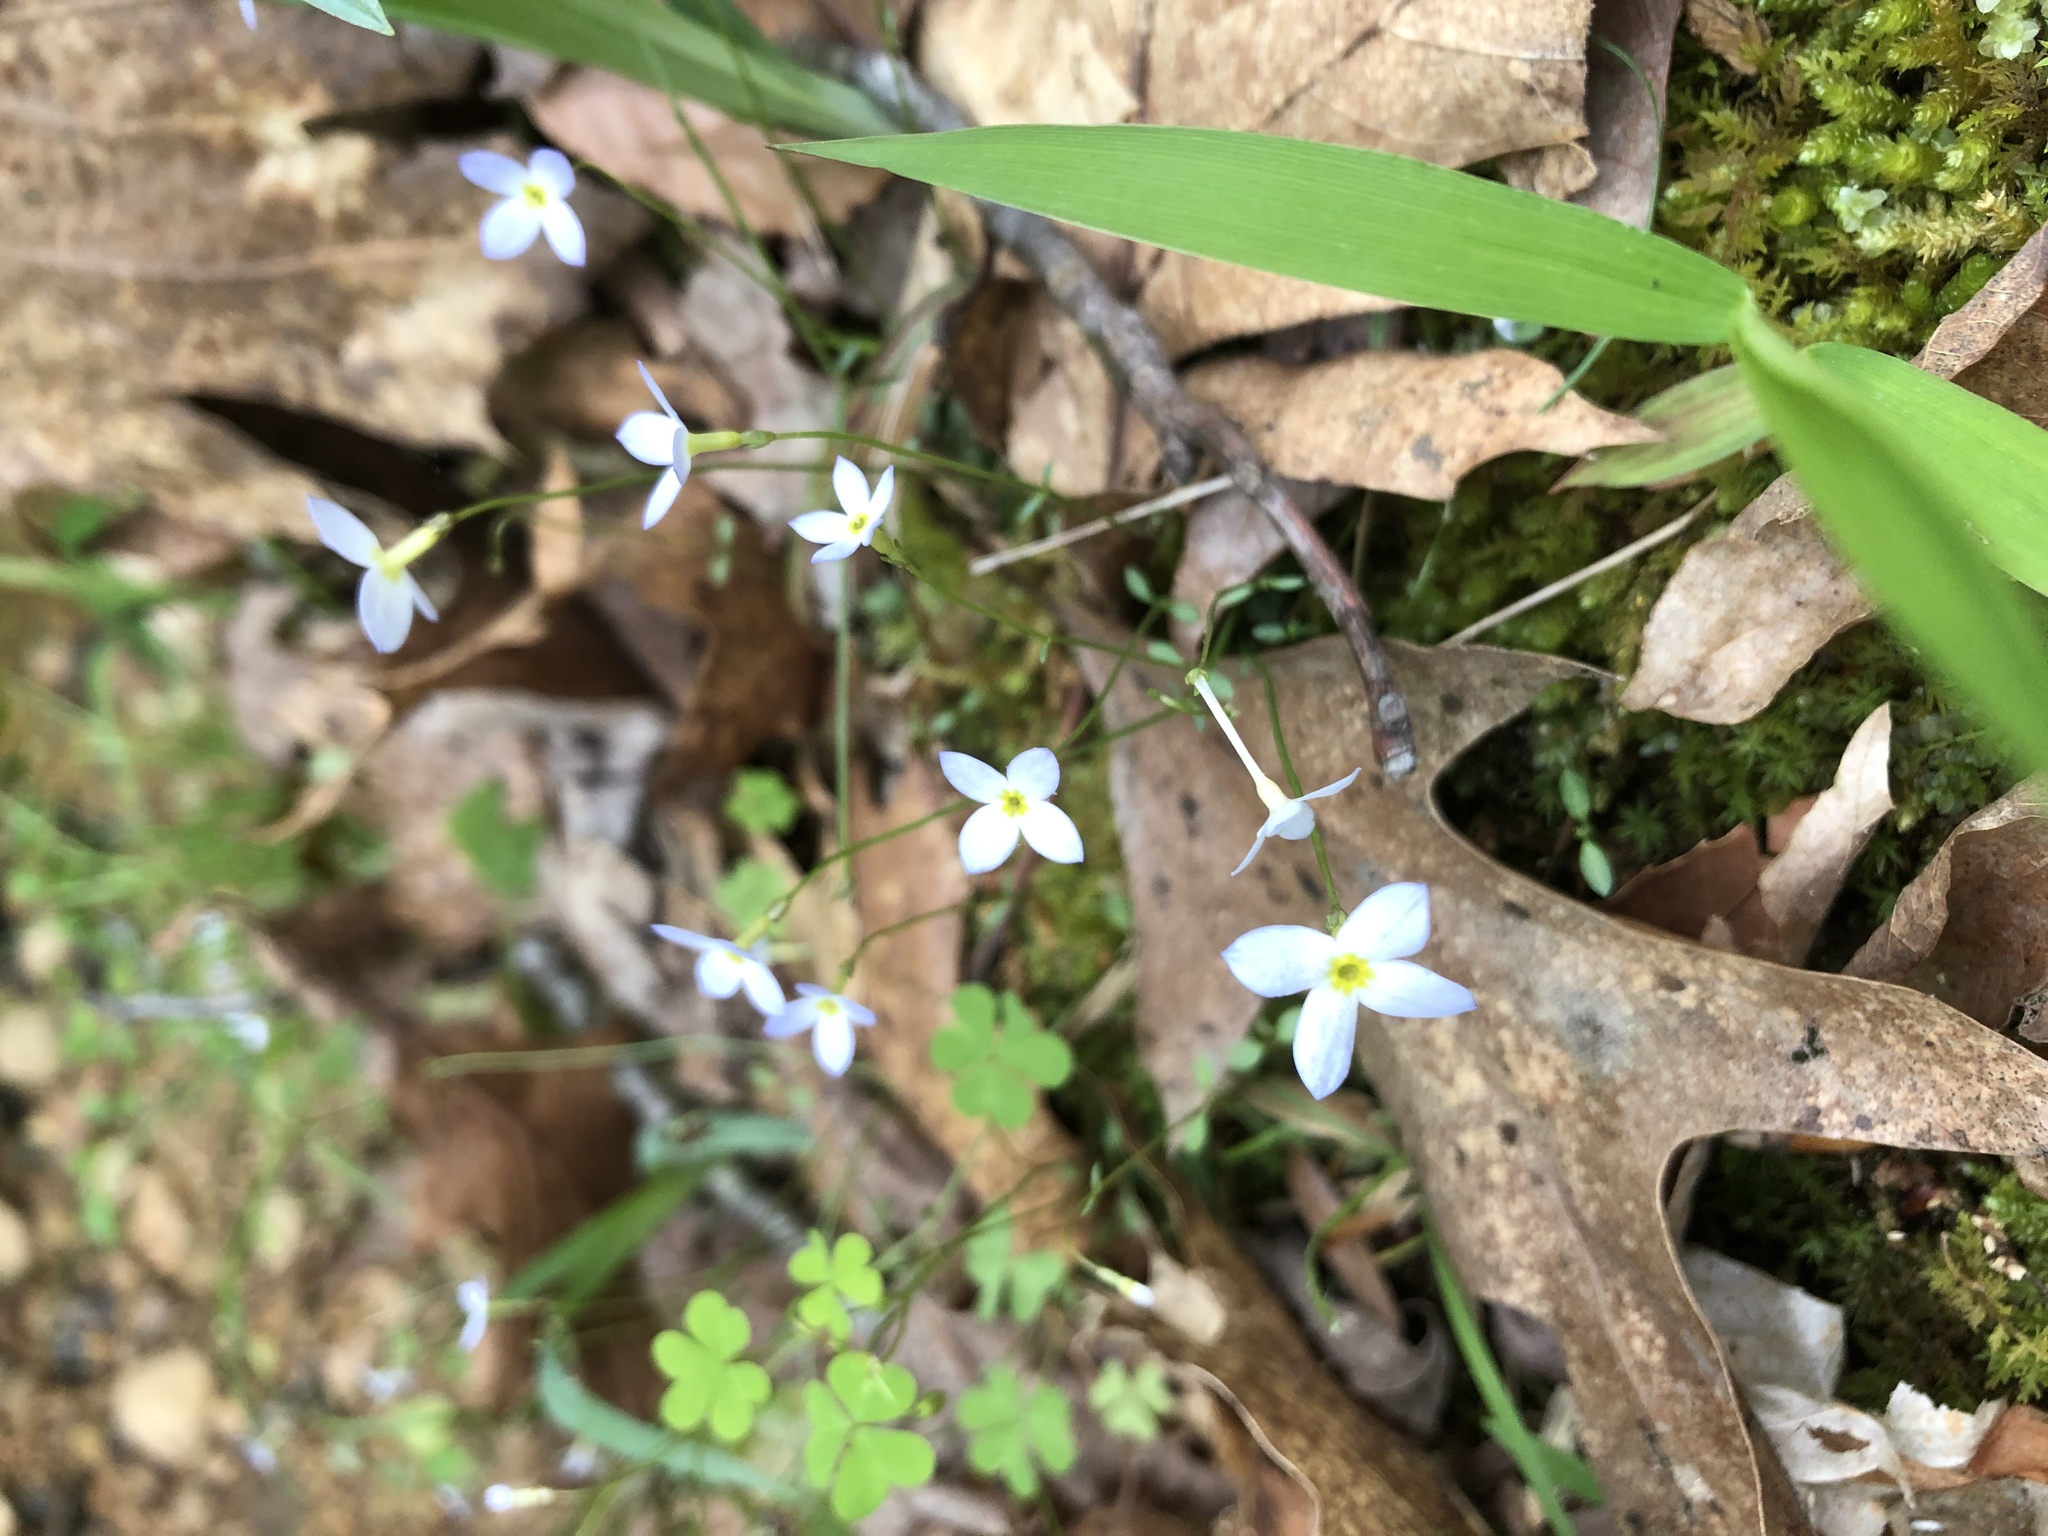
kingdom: Plantae
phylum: Tracheophyta
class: Magnoliopsida
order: Gentianales
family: Rubiaceae
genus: Houstonia
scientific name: Houstonia caerulea
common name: Bluets
